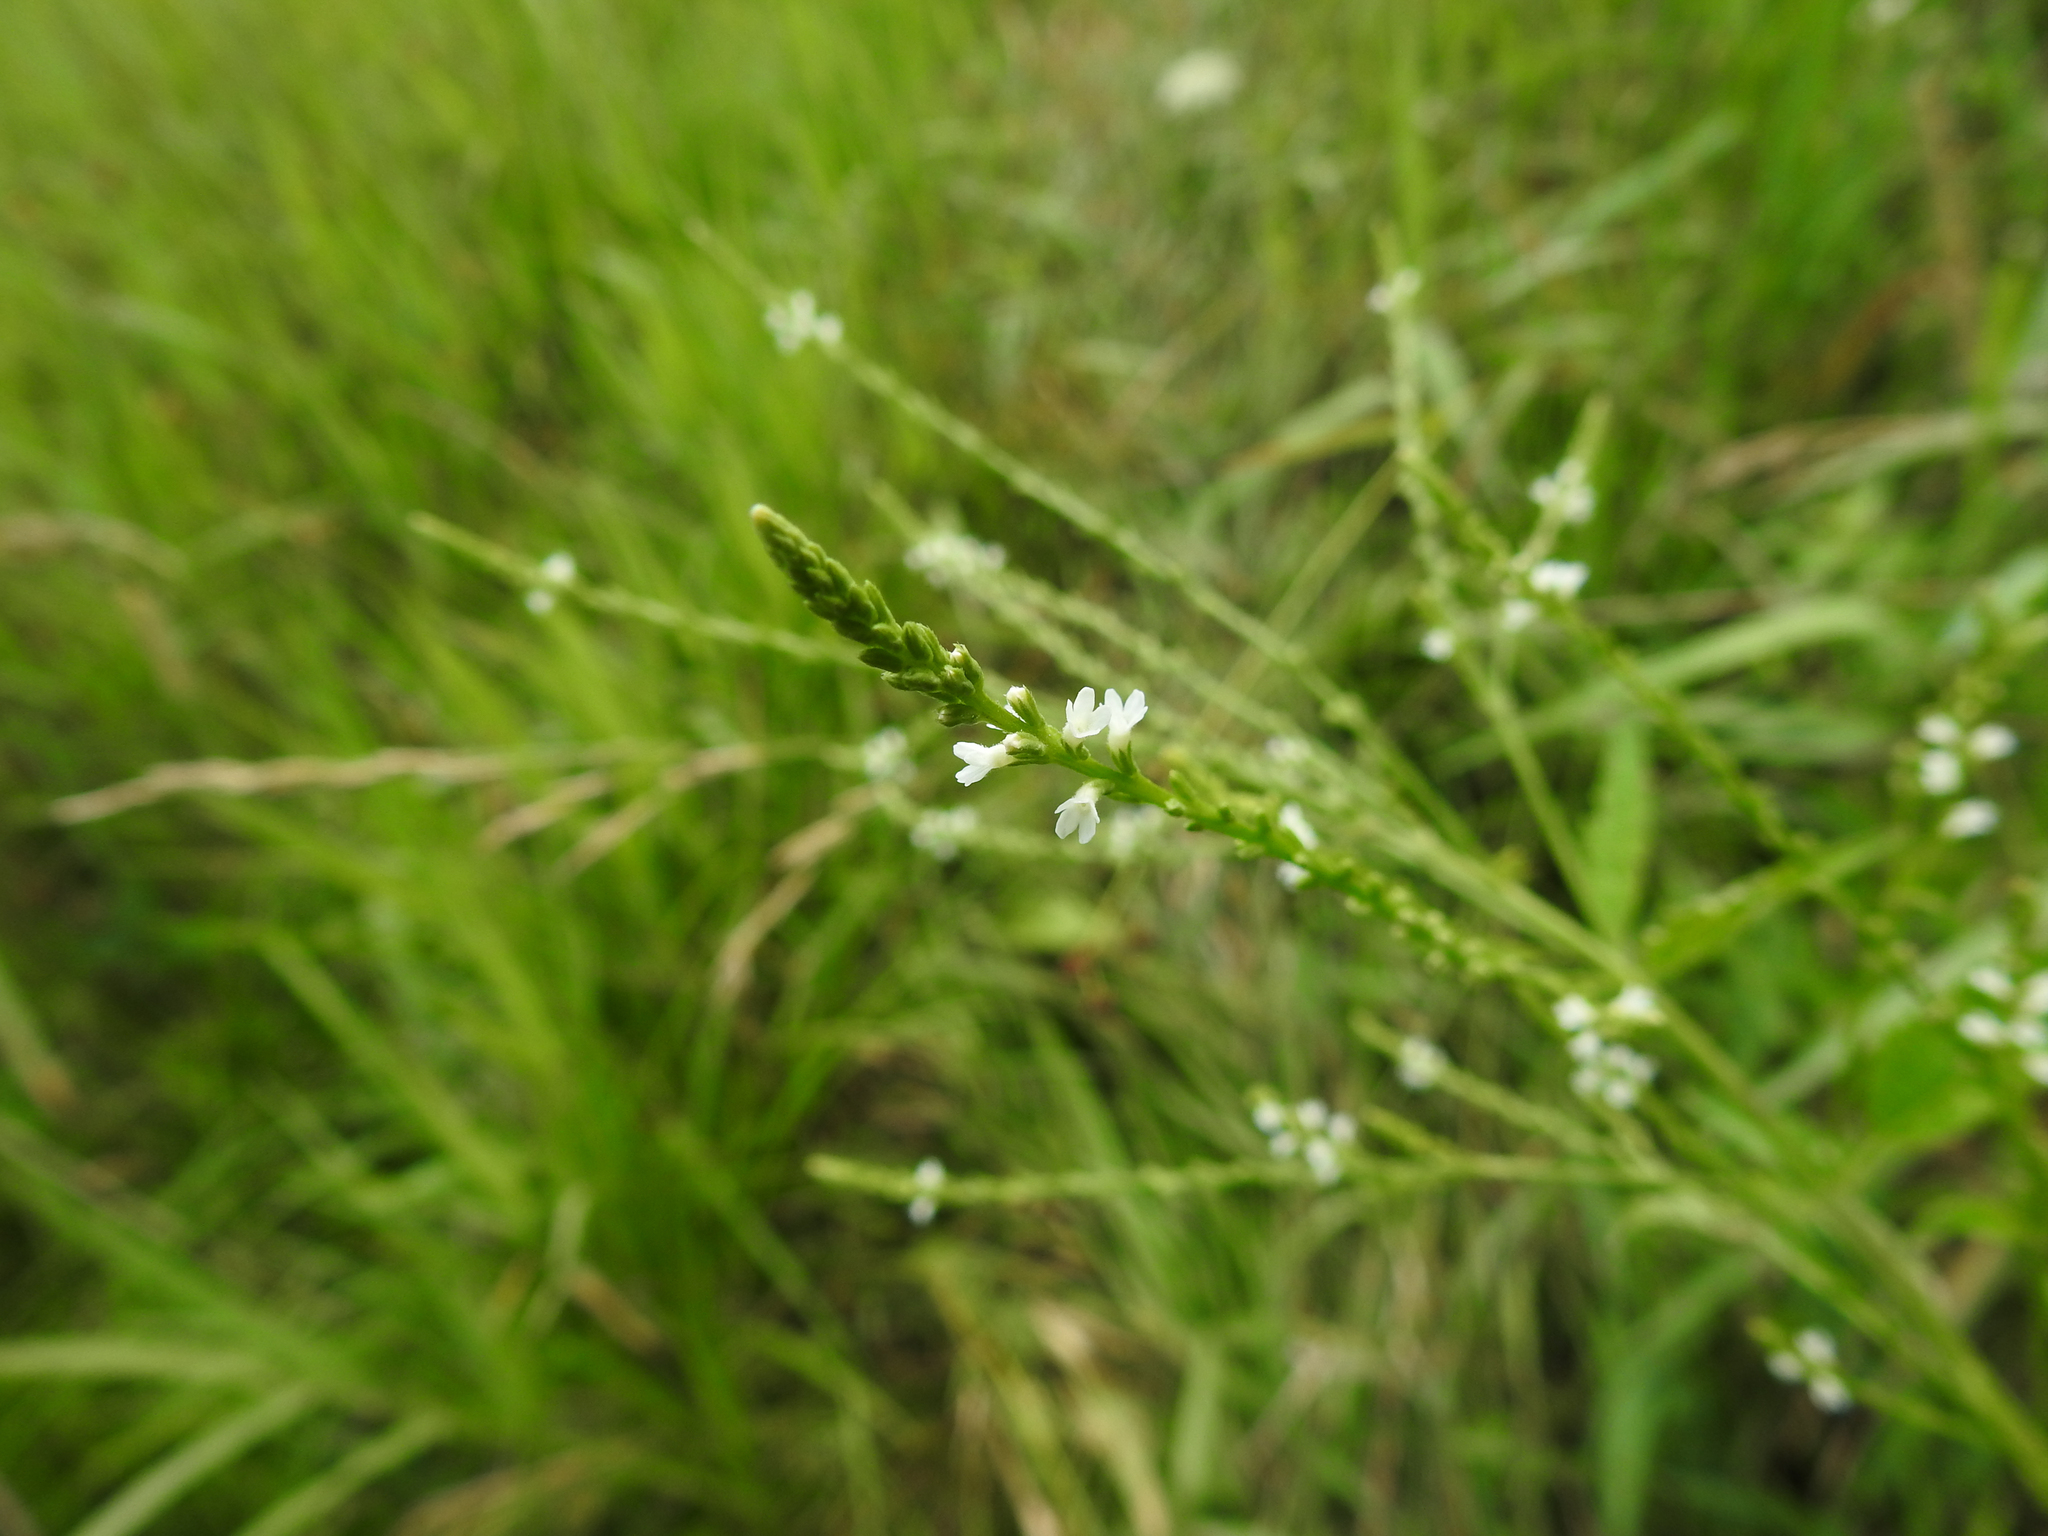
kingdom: Plantae
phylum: Tracheophyta
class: Magnoliopsida
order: Lamiales
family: Verbenaceae
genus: Verbena
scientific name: Verbena urticifolia
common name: Nettle-leaved vervain
